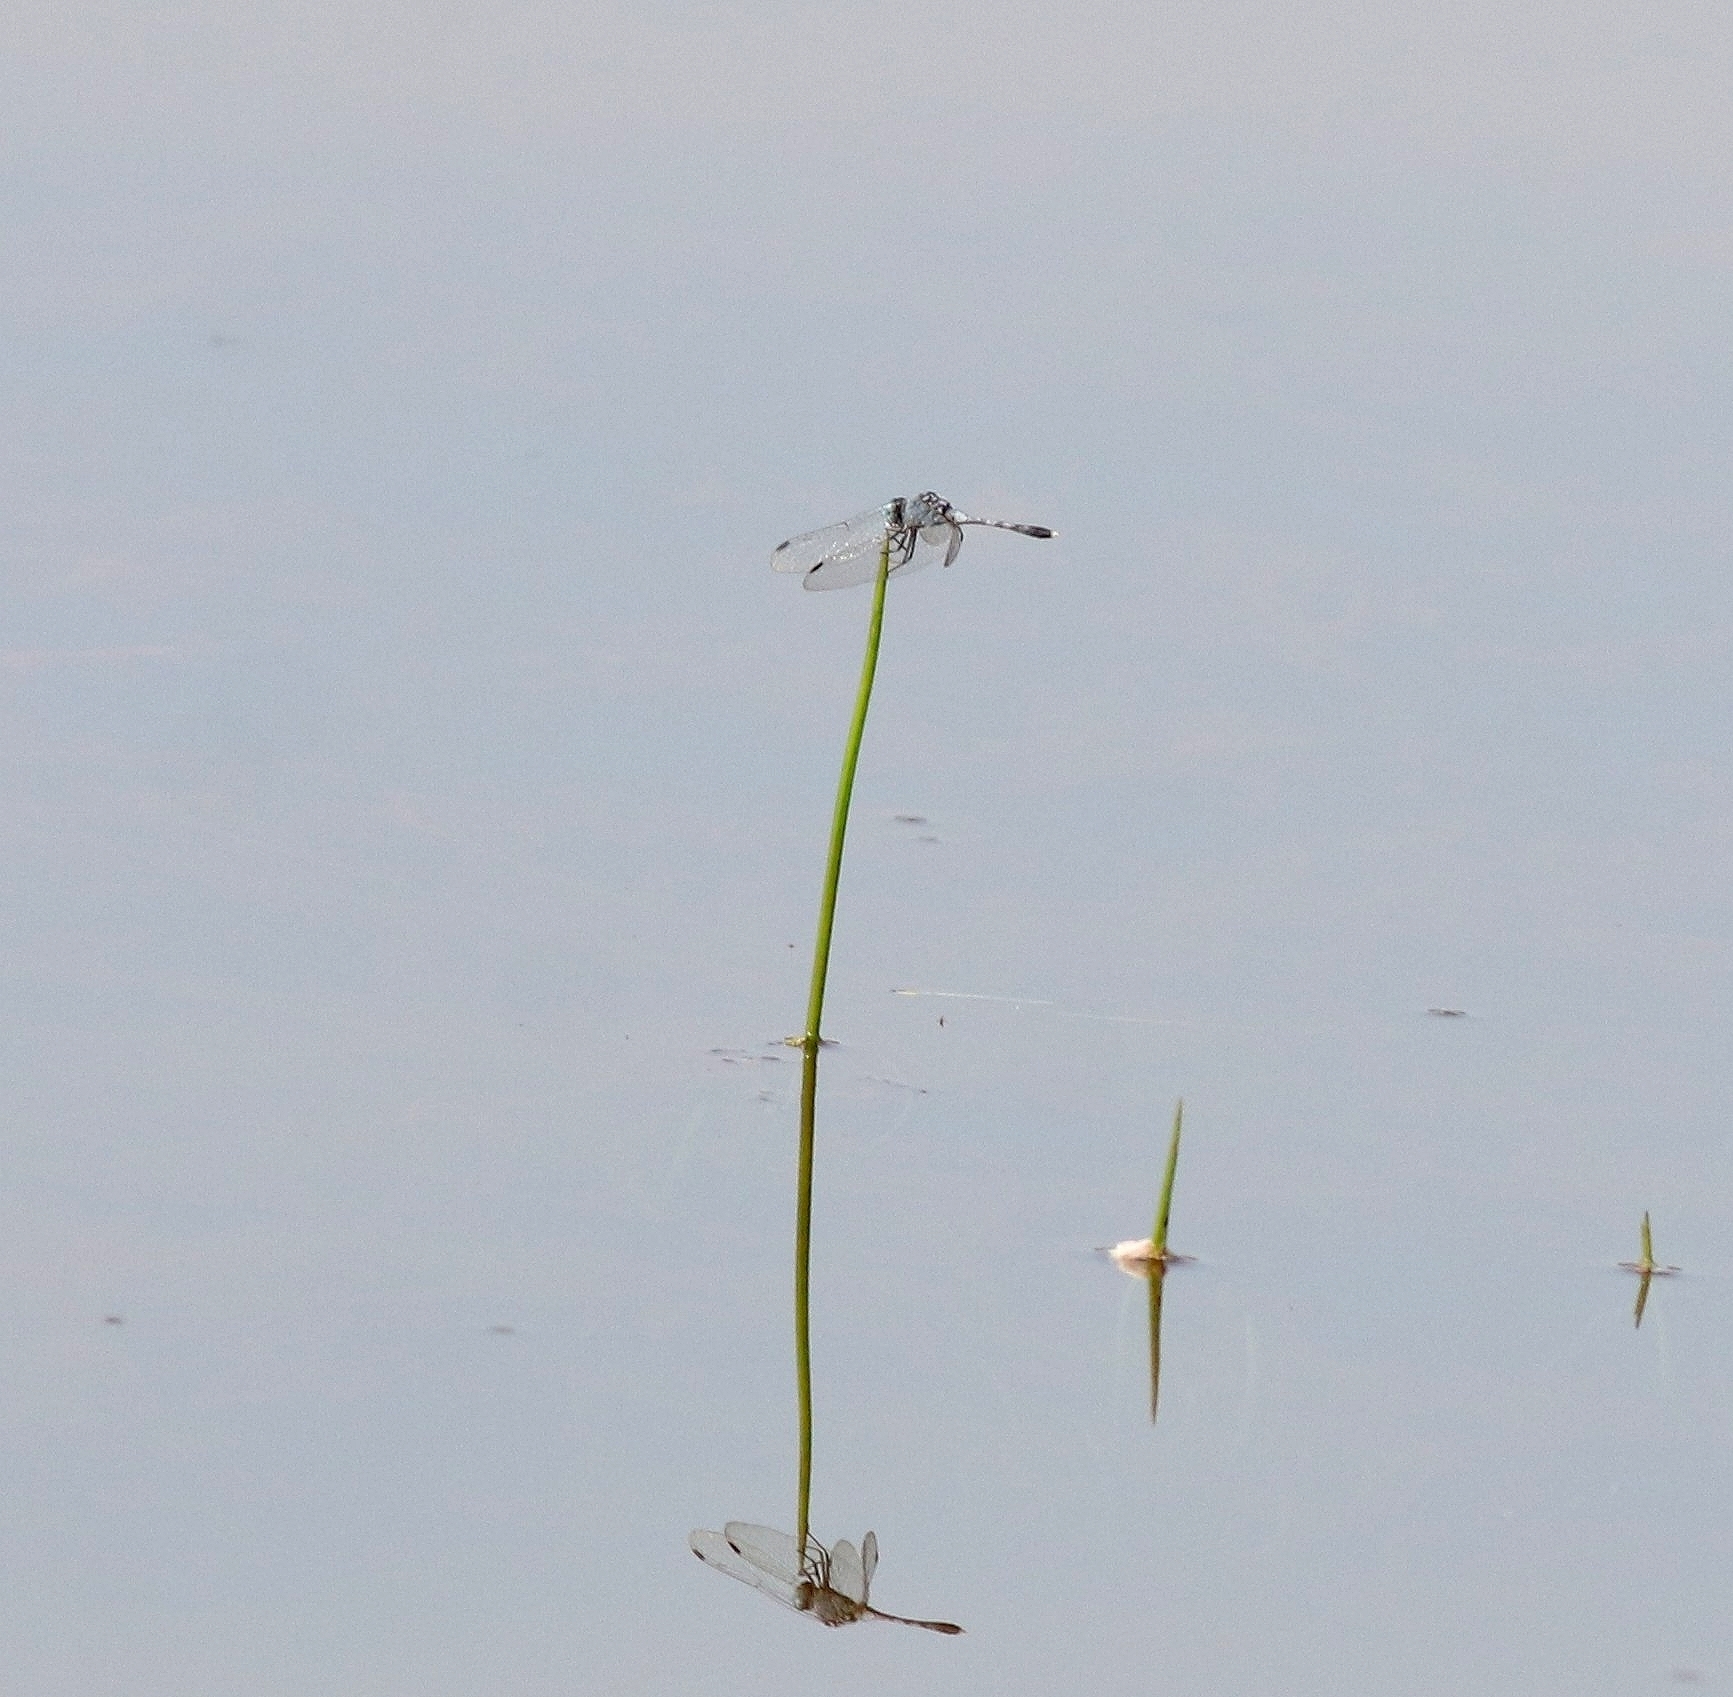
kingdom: Animalia
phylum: Arthropoda
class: Insecta
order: Odonata
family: Libellulidae
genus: Diplacodes
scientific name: Diplacodes trivialis
